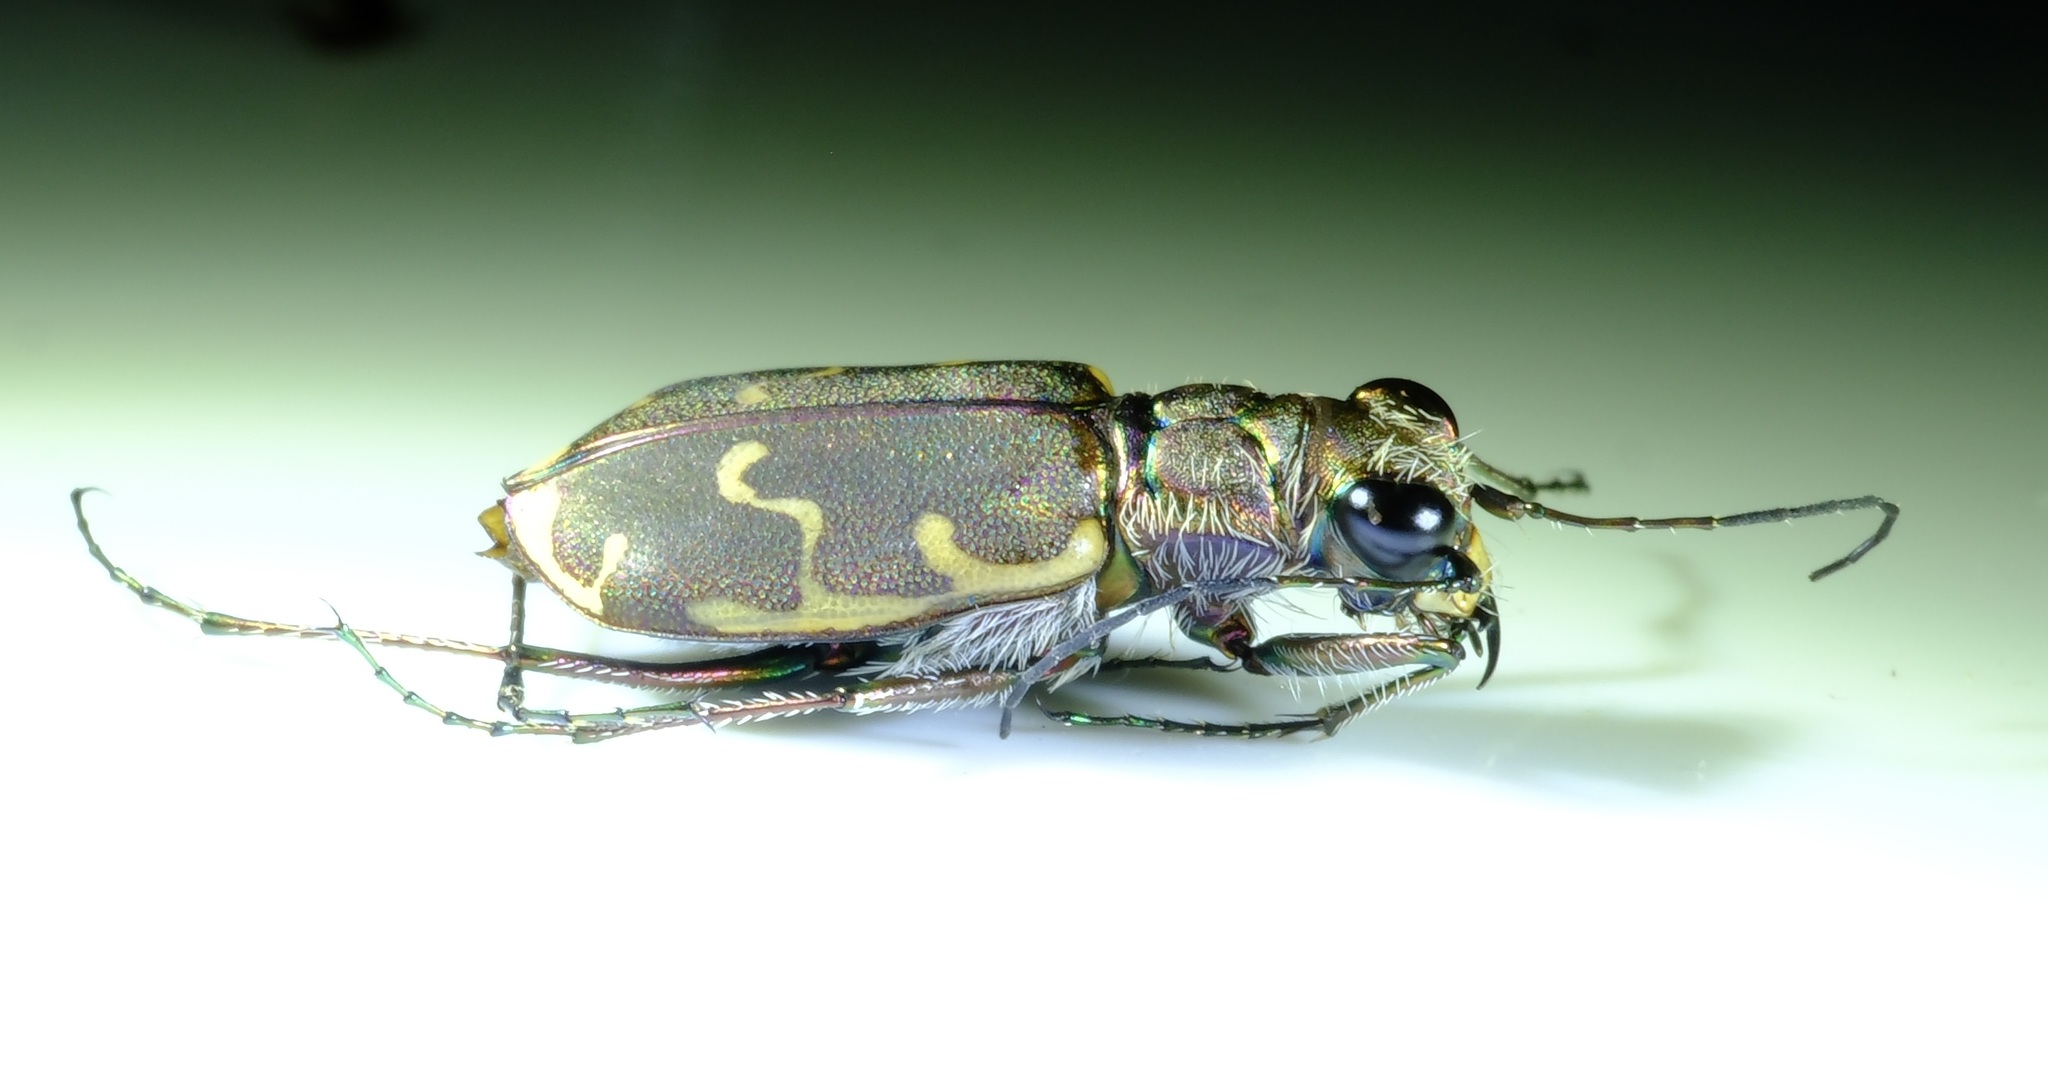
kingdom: Animalia
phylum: Arthropoda
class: Insecta
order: Coleoptera
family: Carabidae
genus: Cicindela
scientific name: Cicindela repanda
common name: Bronzed tiger beetle
